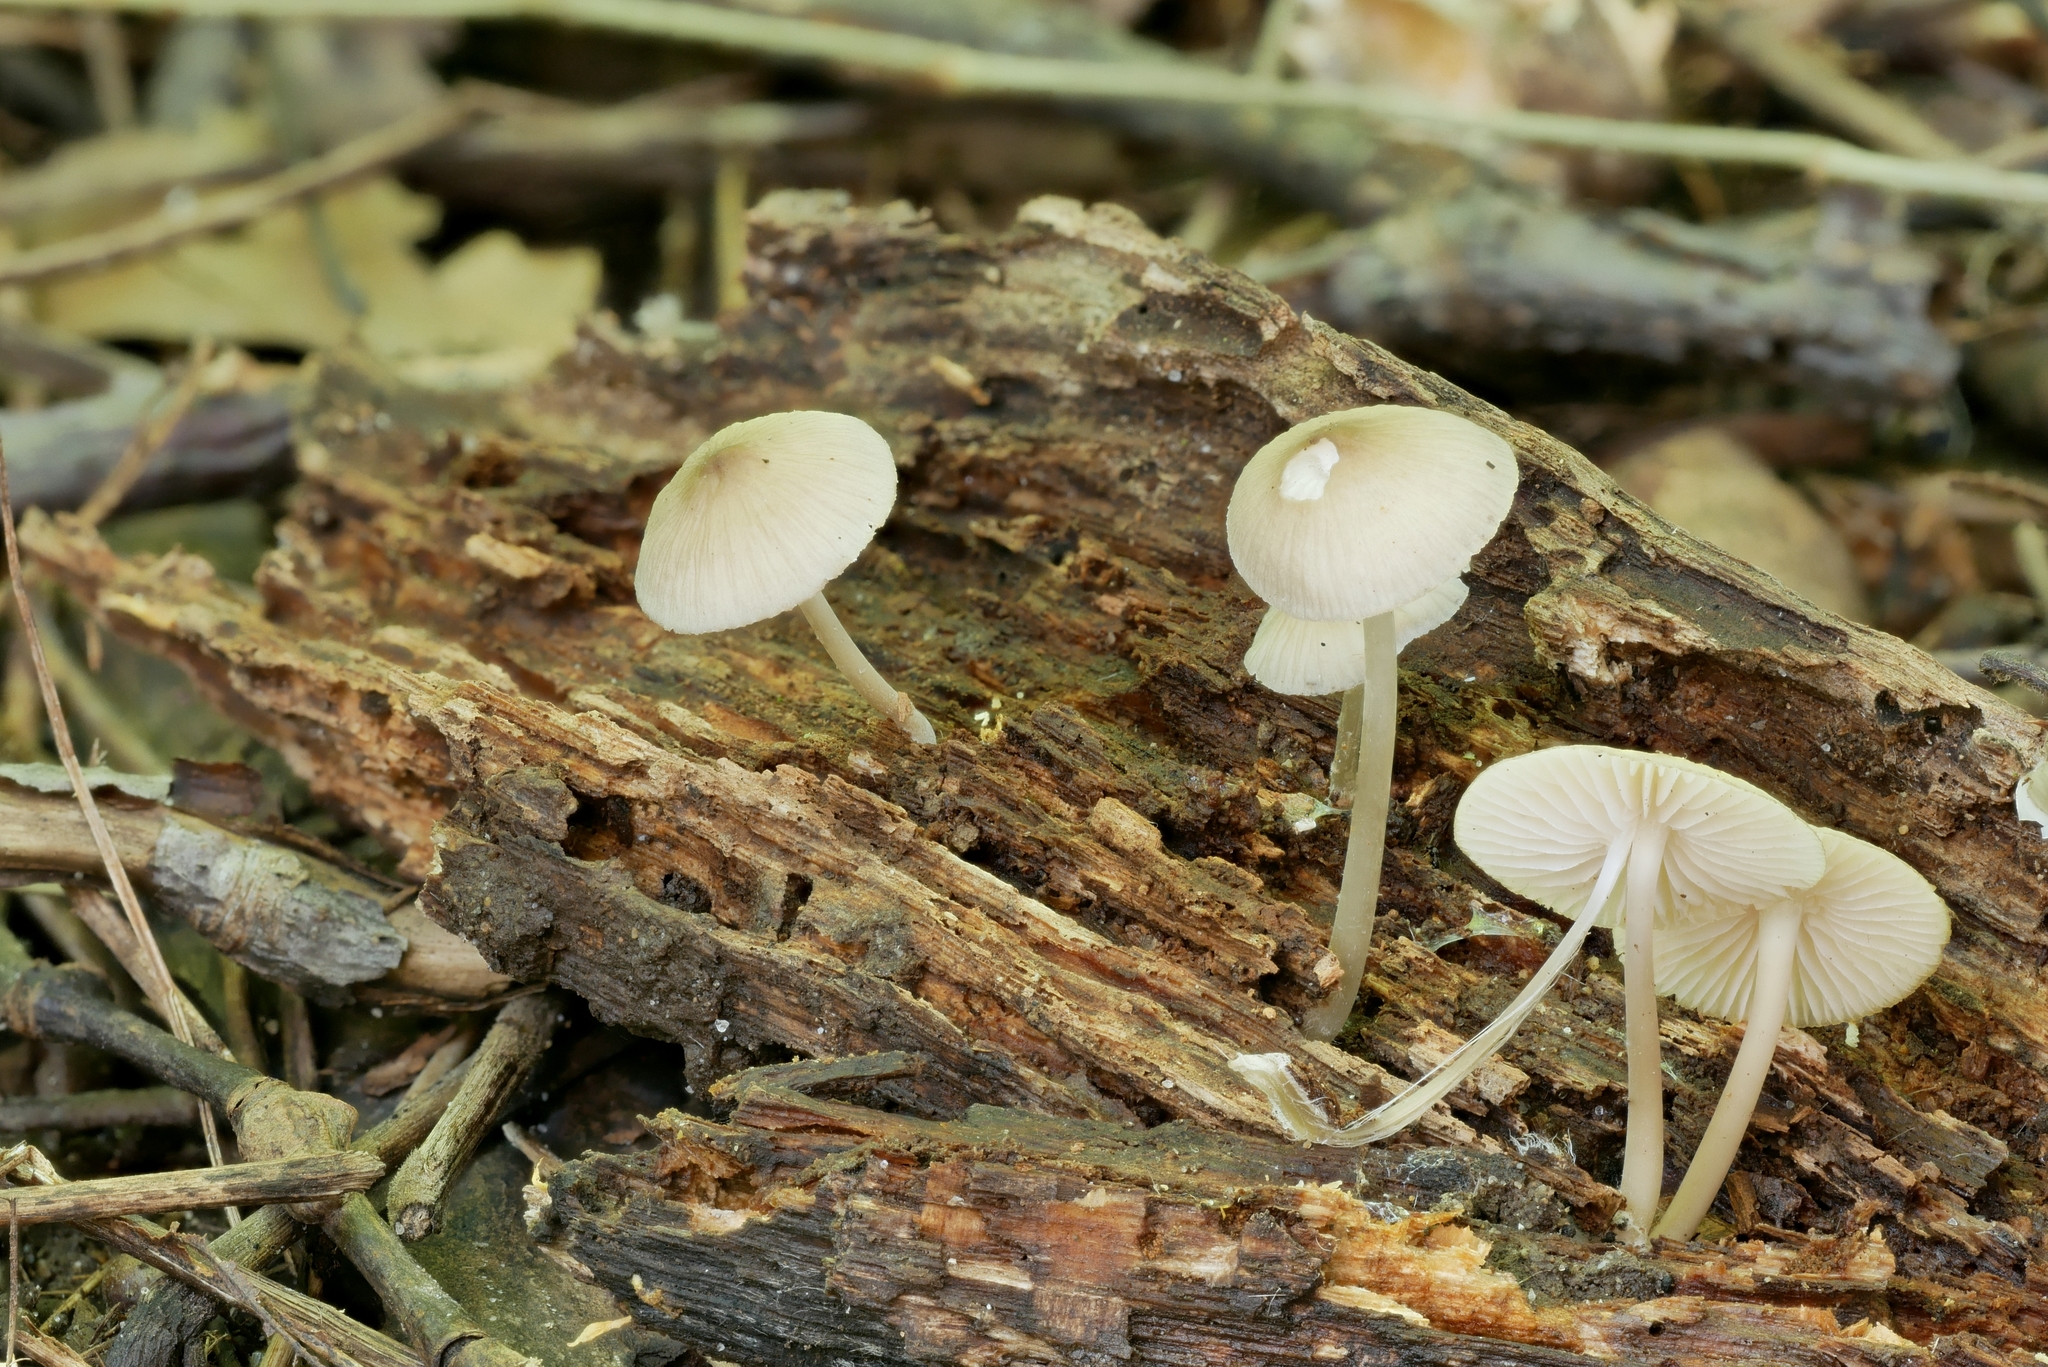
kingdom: Fungi
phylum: Basidiomycota
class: Agaricomycetes
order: Agaricales
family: Mycenaceae
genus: Mycena
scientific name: Mycena galericulata
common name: Bonnet mycena
